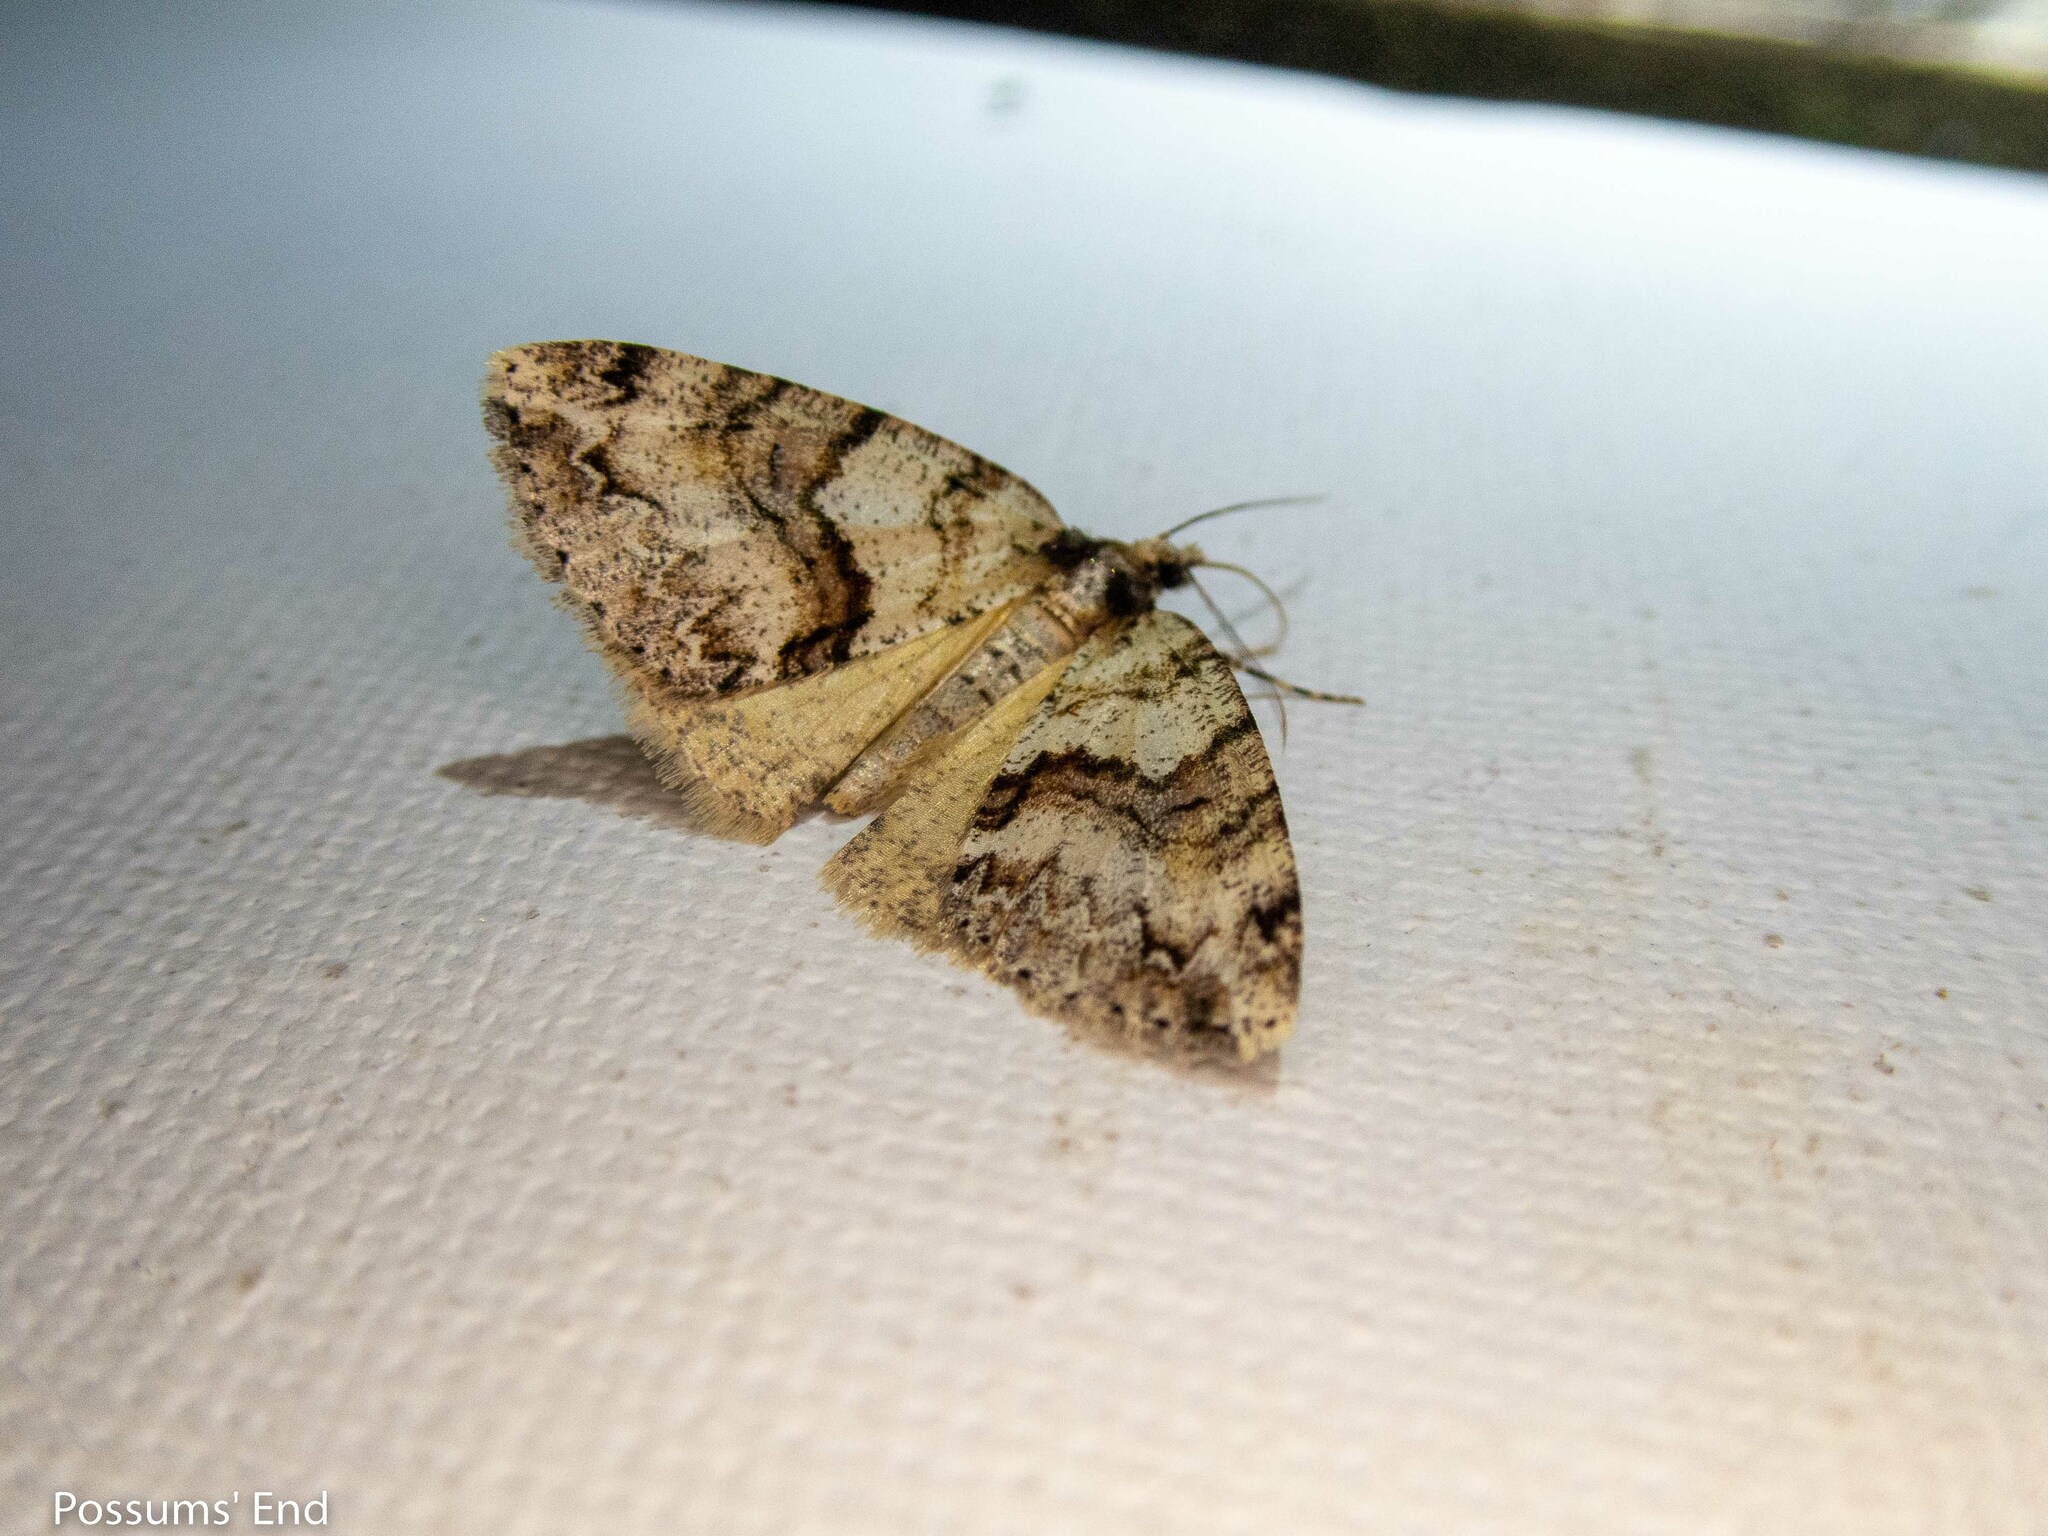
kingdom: Animalia
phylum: Arthropoda
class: Insecta
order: Lepidoptera
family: Geometridae
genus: Pseudocoremia
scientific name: Pseudocoremia suavis
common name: Common forest looper
